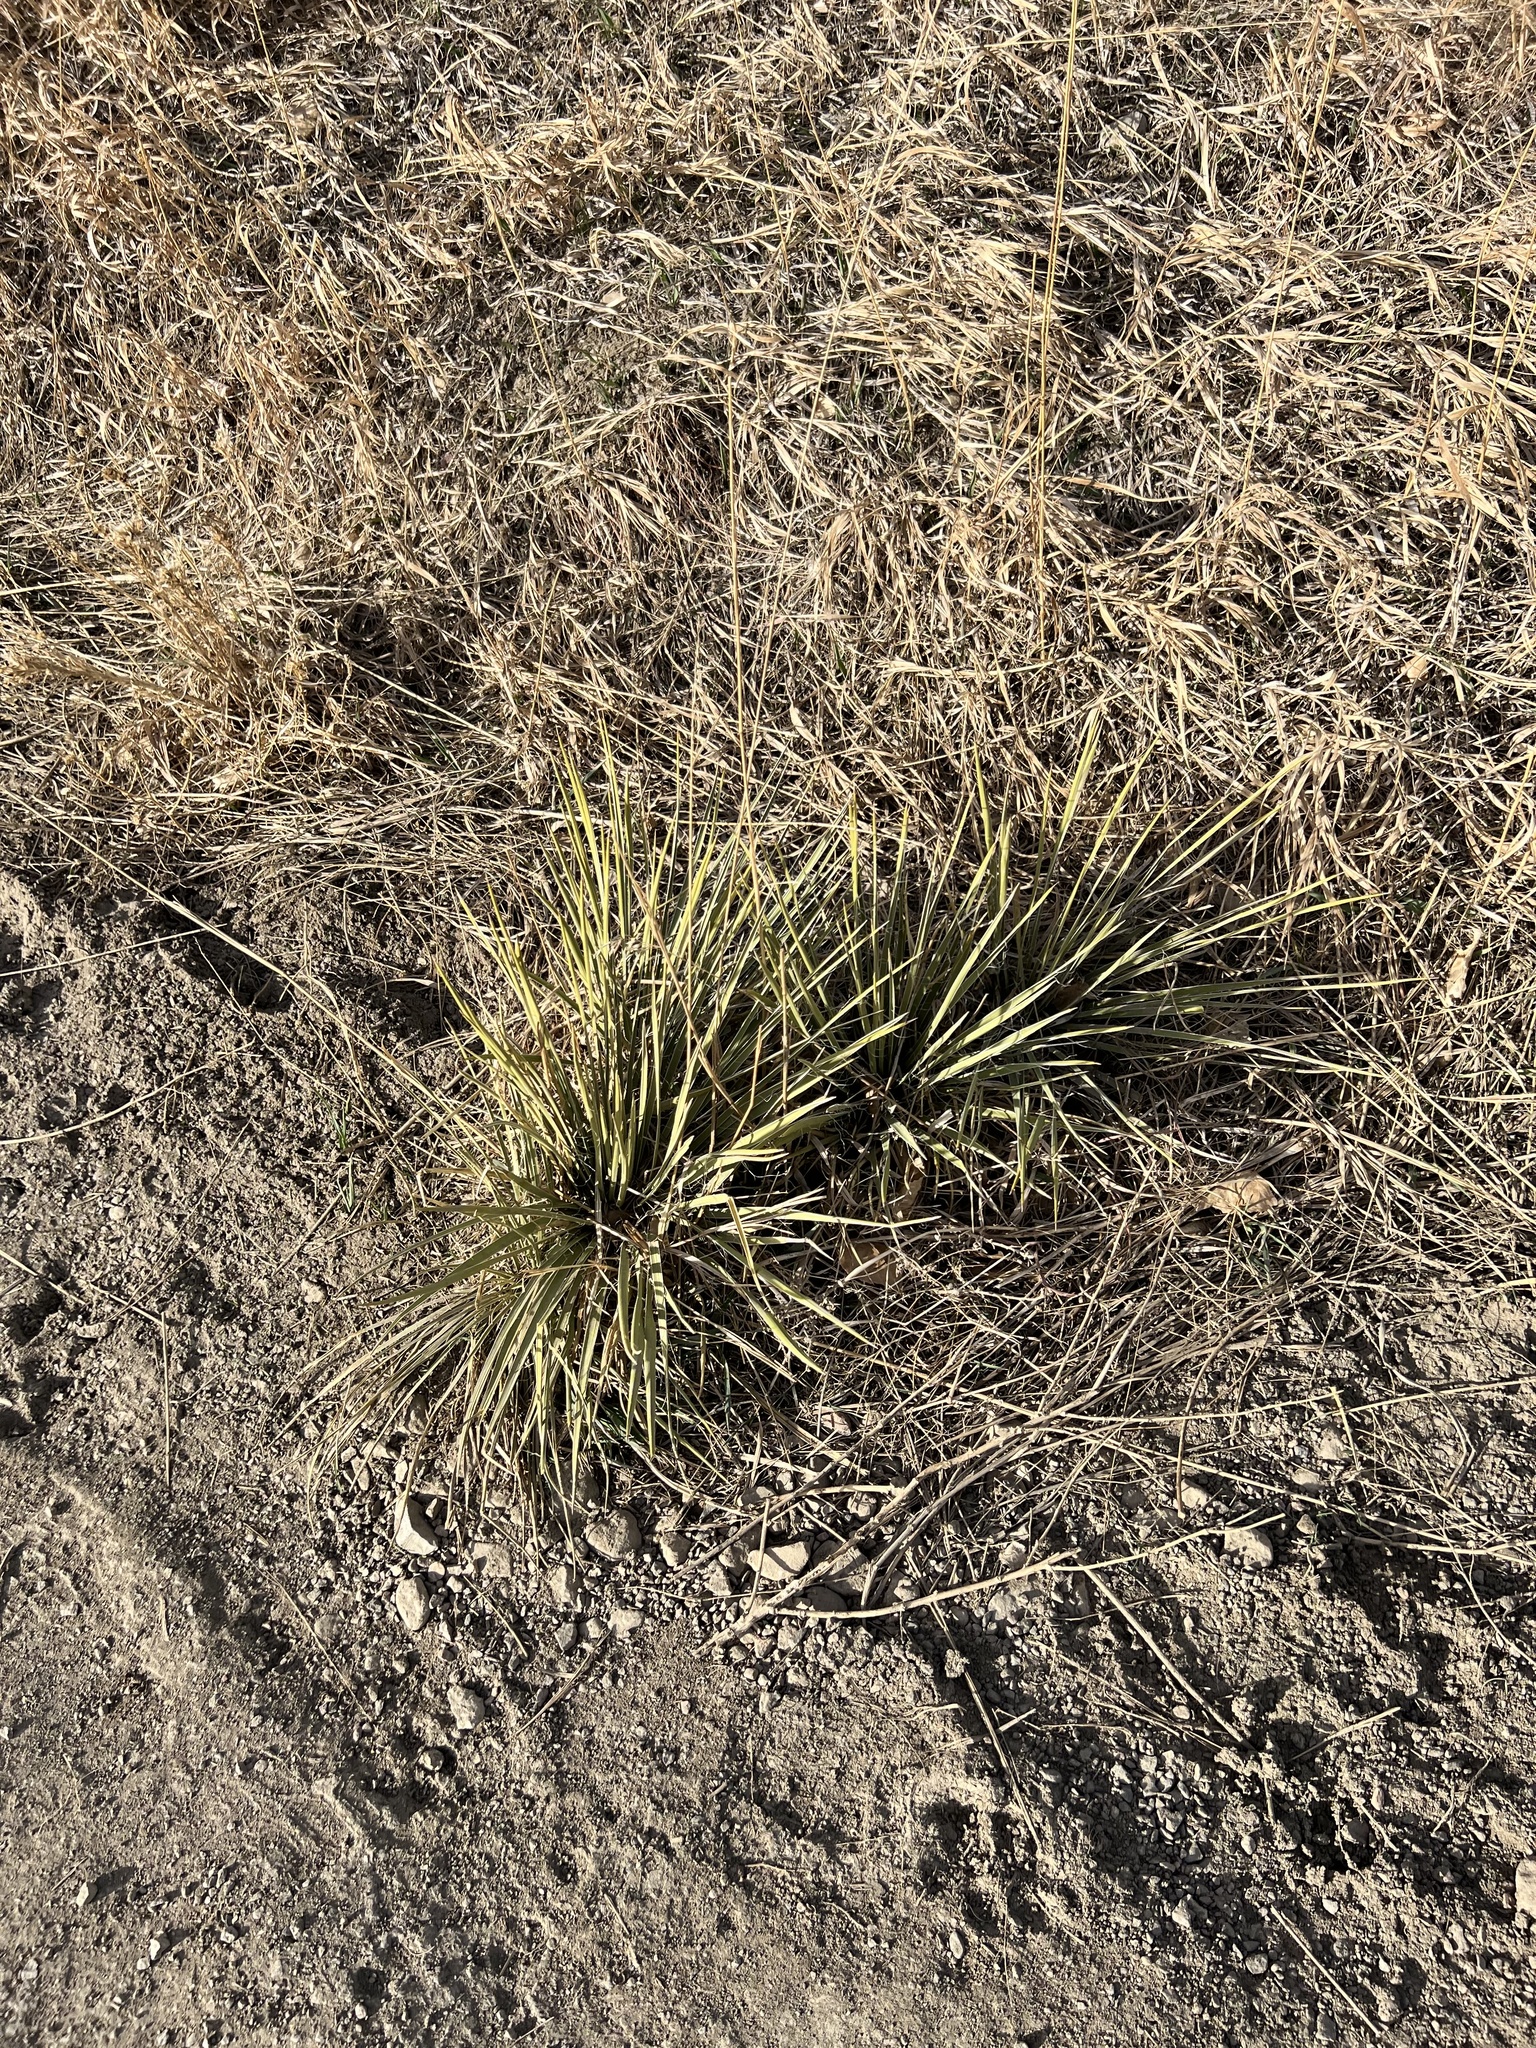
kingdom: Plantae
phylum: Tracheophyta
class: Liliopsida
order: Asparagales
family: Asparagaceae
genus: Yucca
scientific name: Yucca glauca
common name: Great plains yucca
